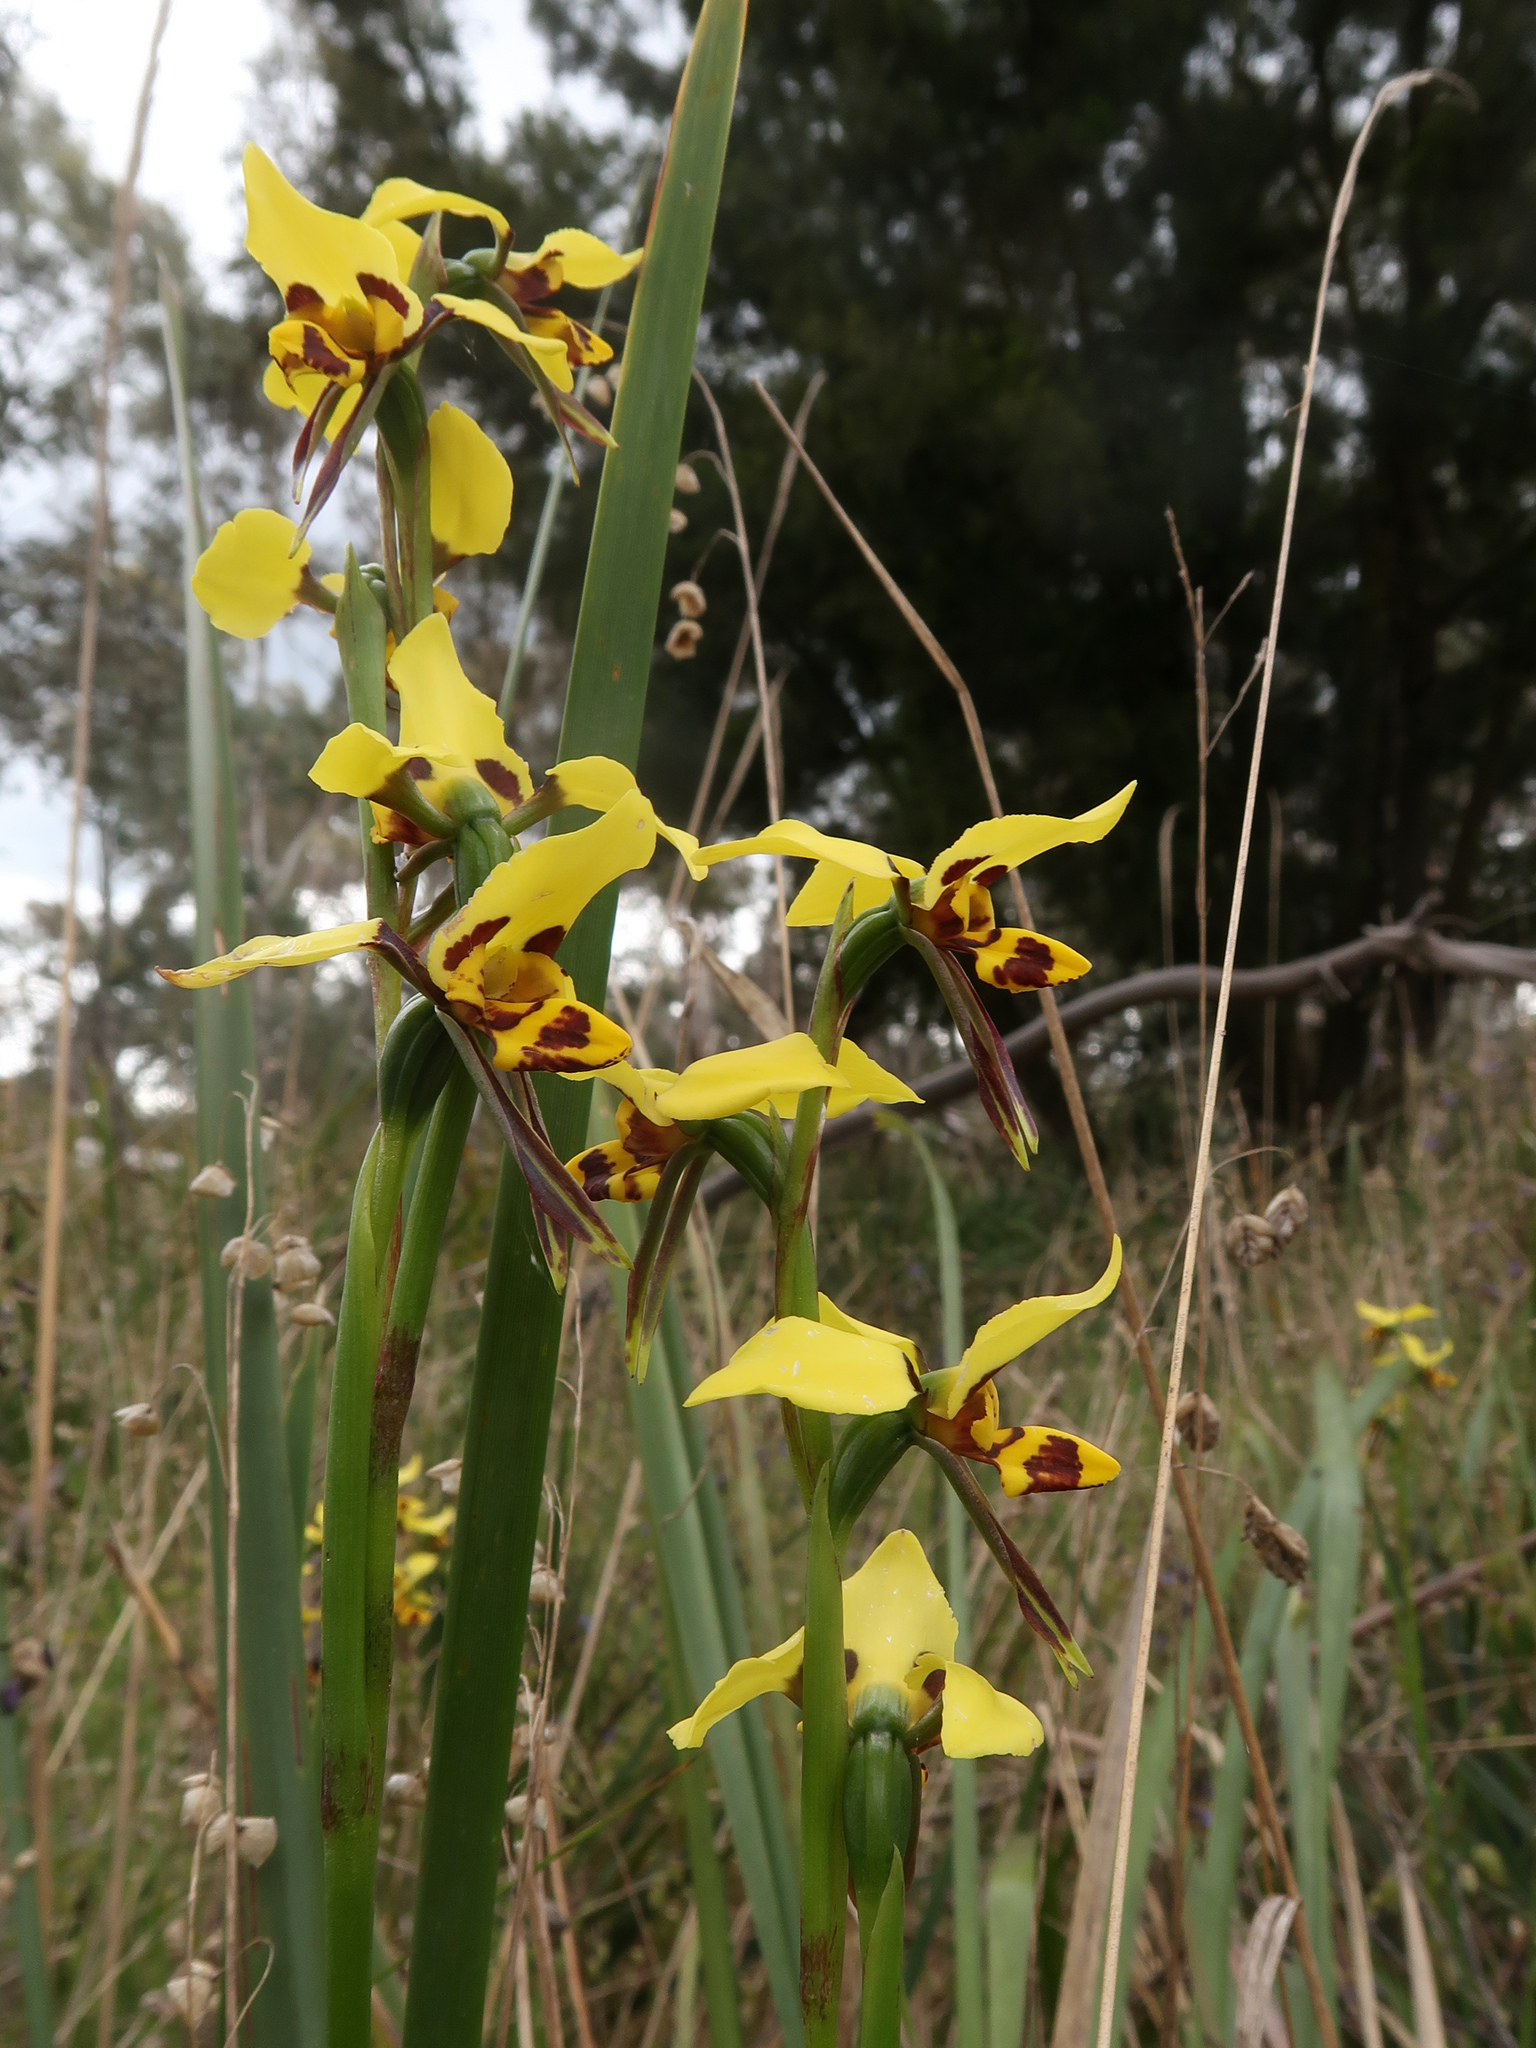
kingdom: Plantae
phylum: Tracheophyta
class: Liliopsida
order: Asparagales
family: Orchidaceae
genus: Diuris
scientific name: Diuris sulphurea
